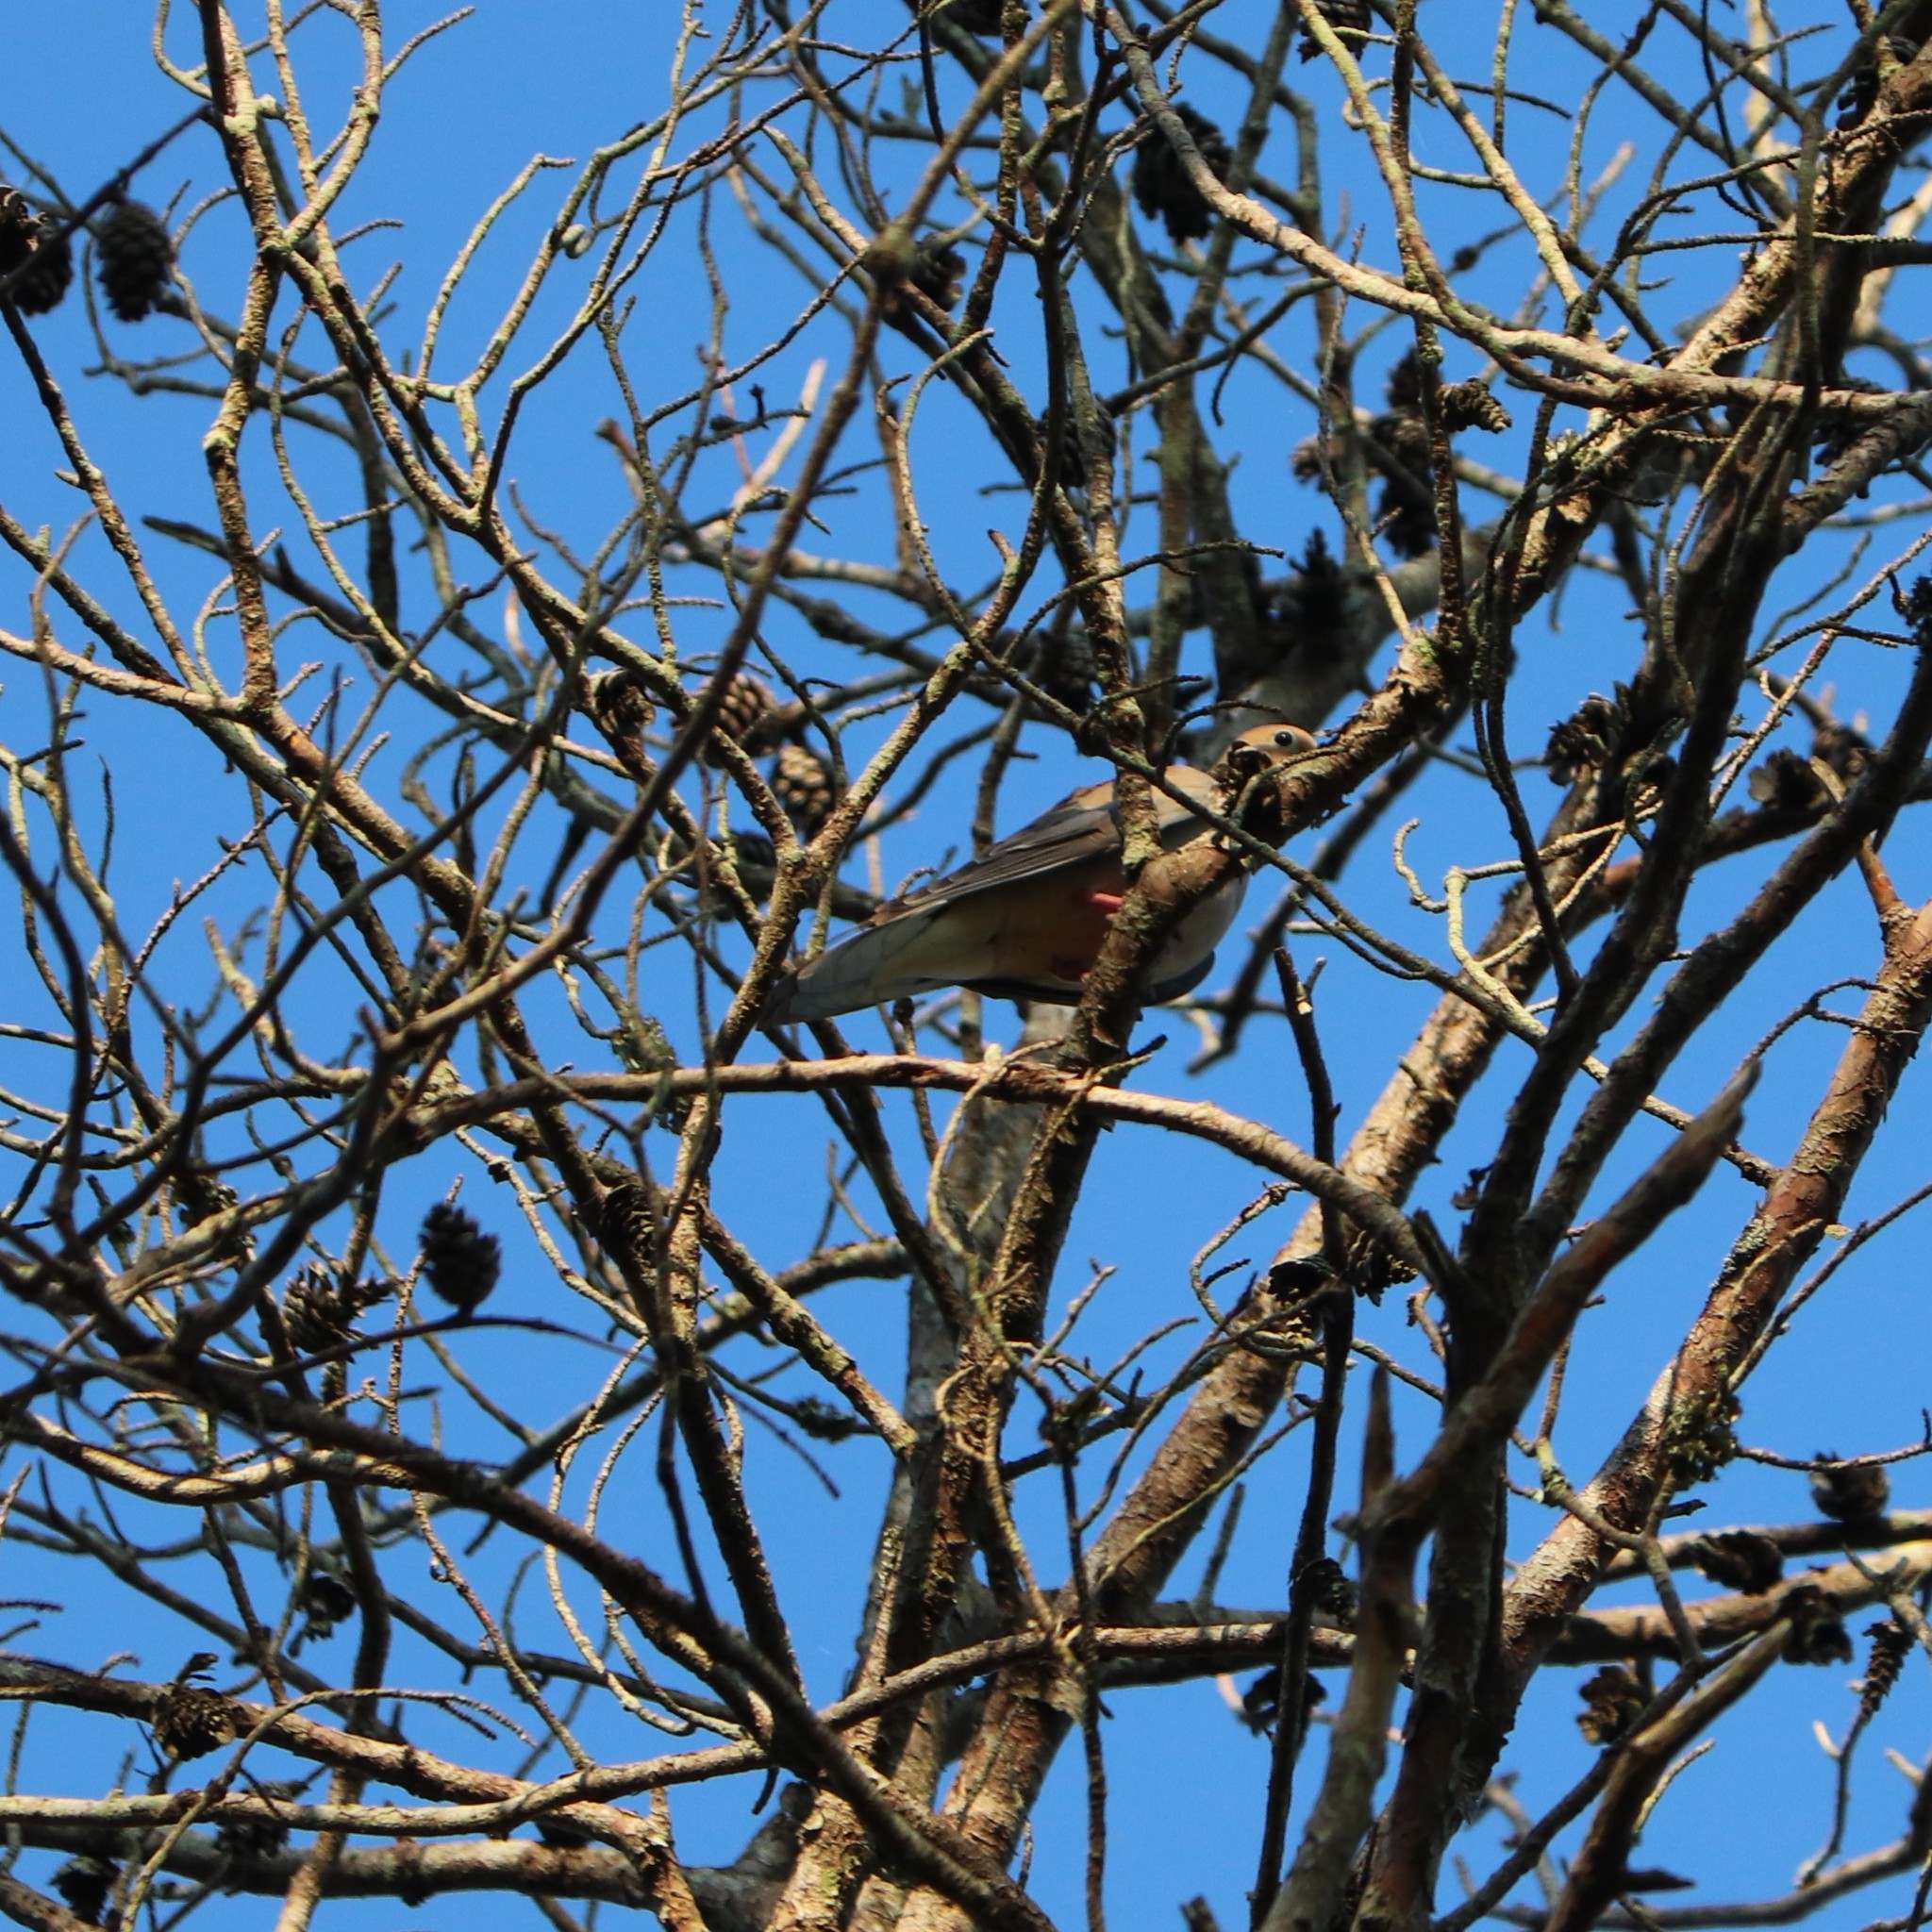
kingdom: Animalia
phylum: Chordata
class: Aves
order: Columbiformes
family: Columbidae
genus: Zenaida
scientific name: Zenaida macroura
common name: Mourning dove
